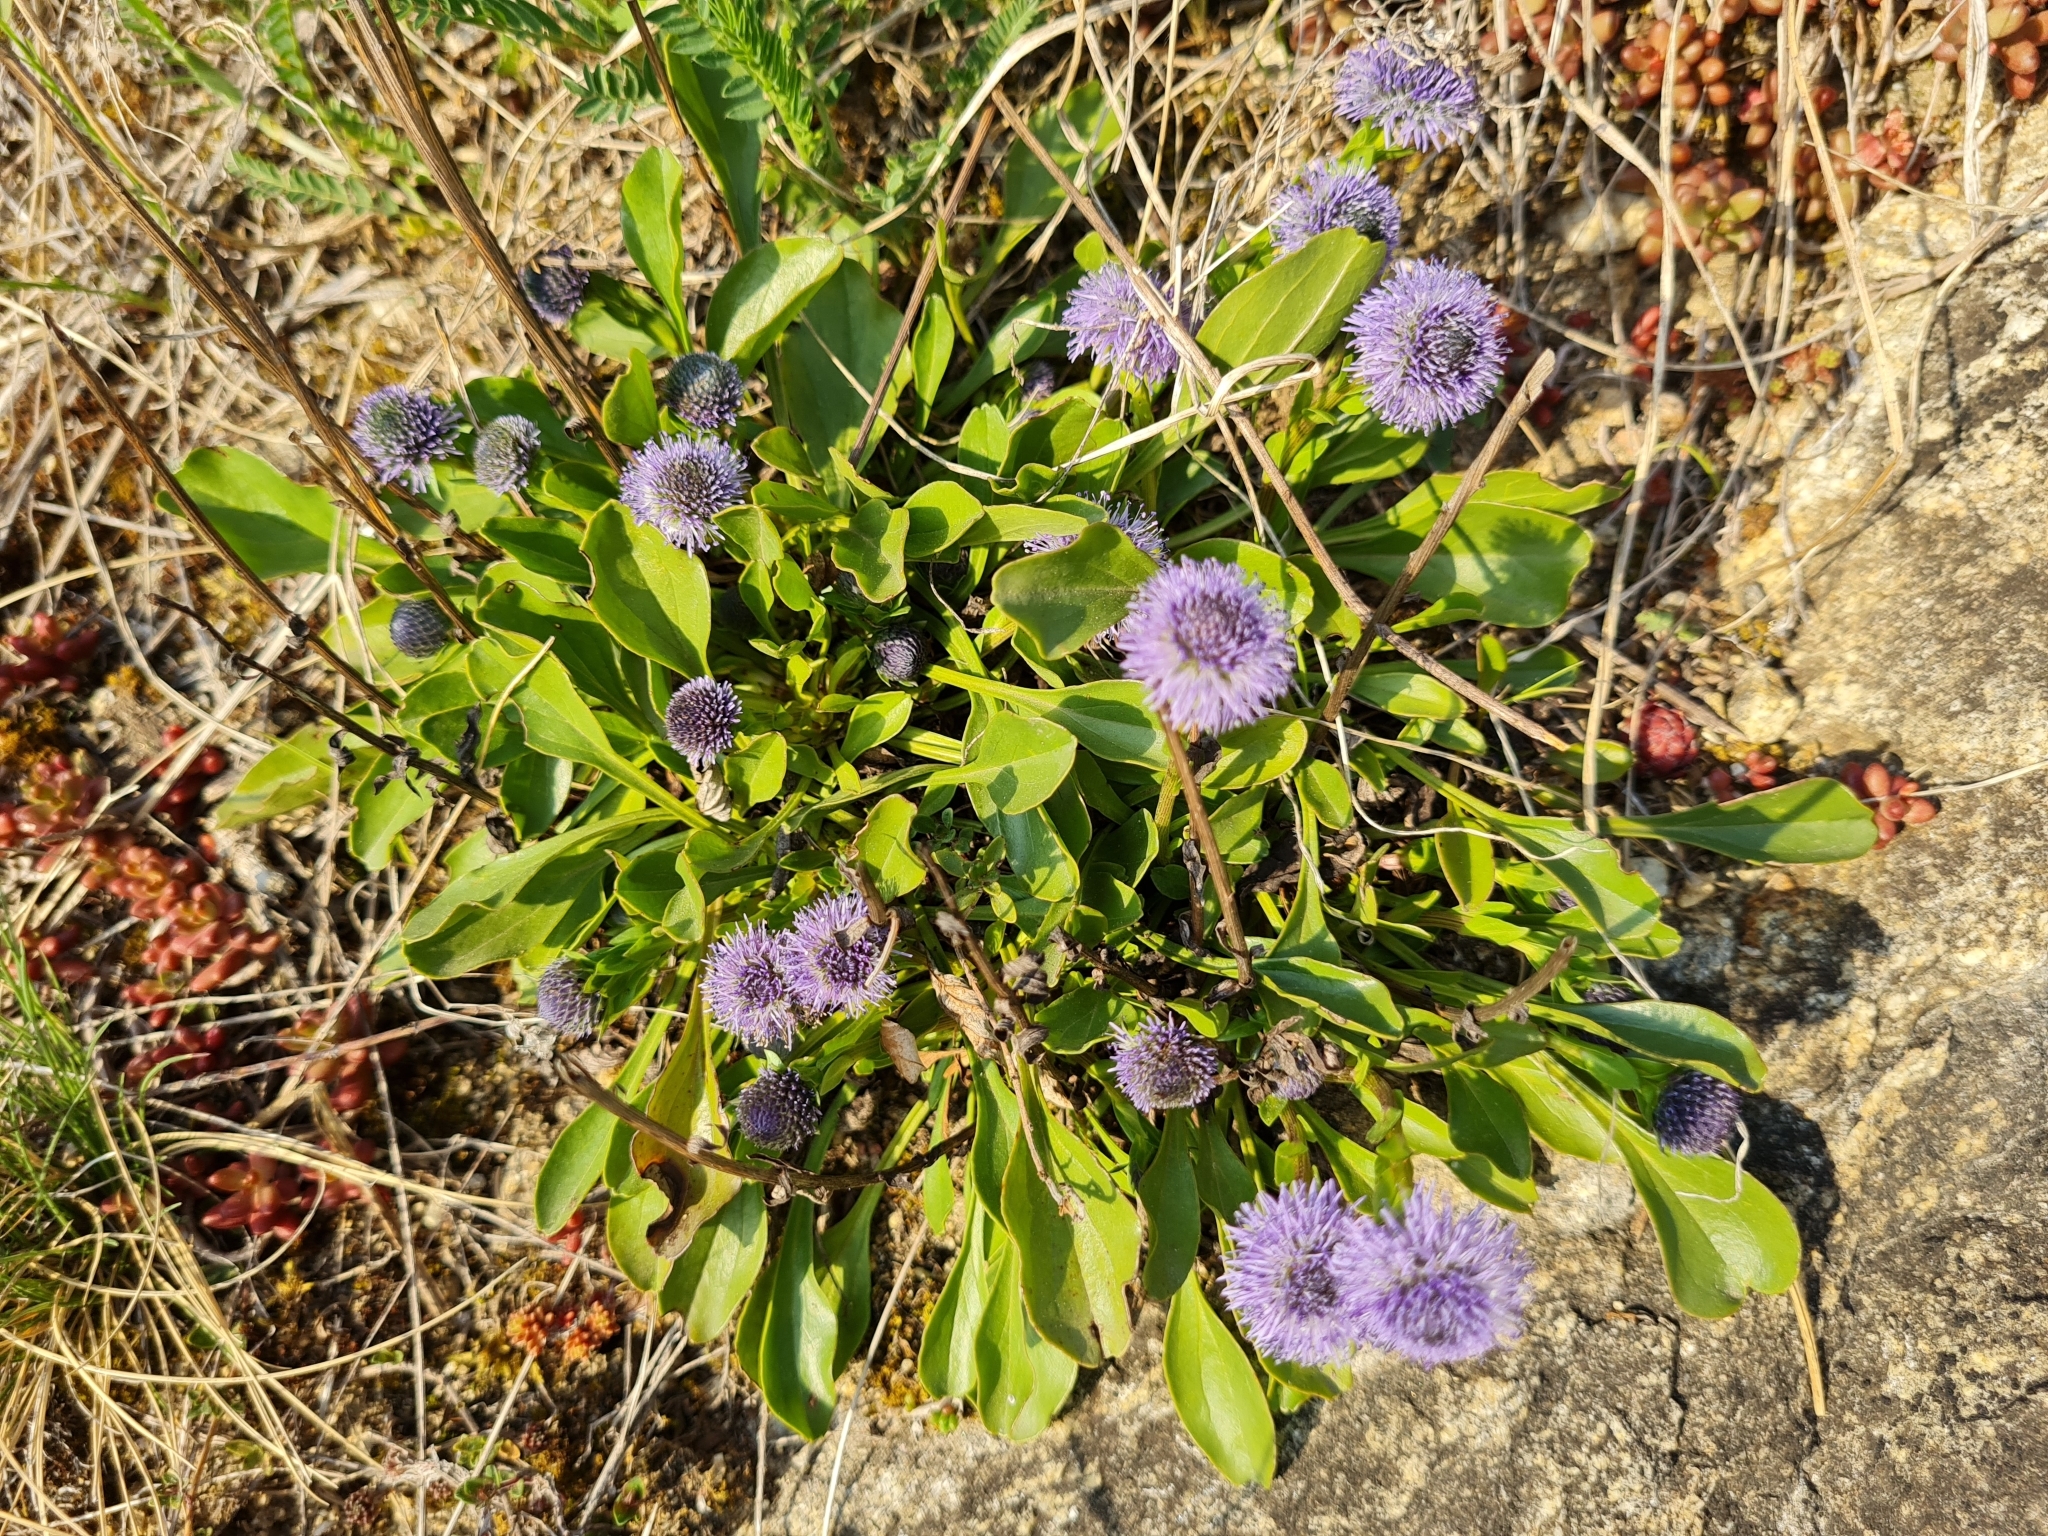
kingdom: Plantae
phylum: Tracheophyta
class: Magnoliopsida
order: Lamiales
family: Plantaginaceae
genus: Globularia
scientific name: Globularia bisnagarica
